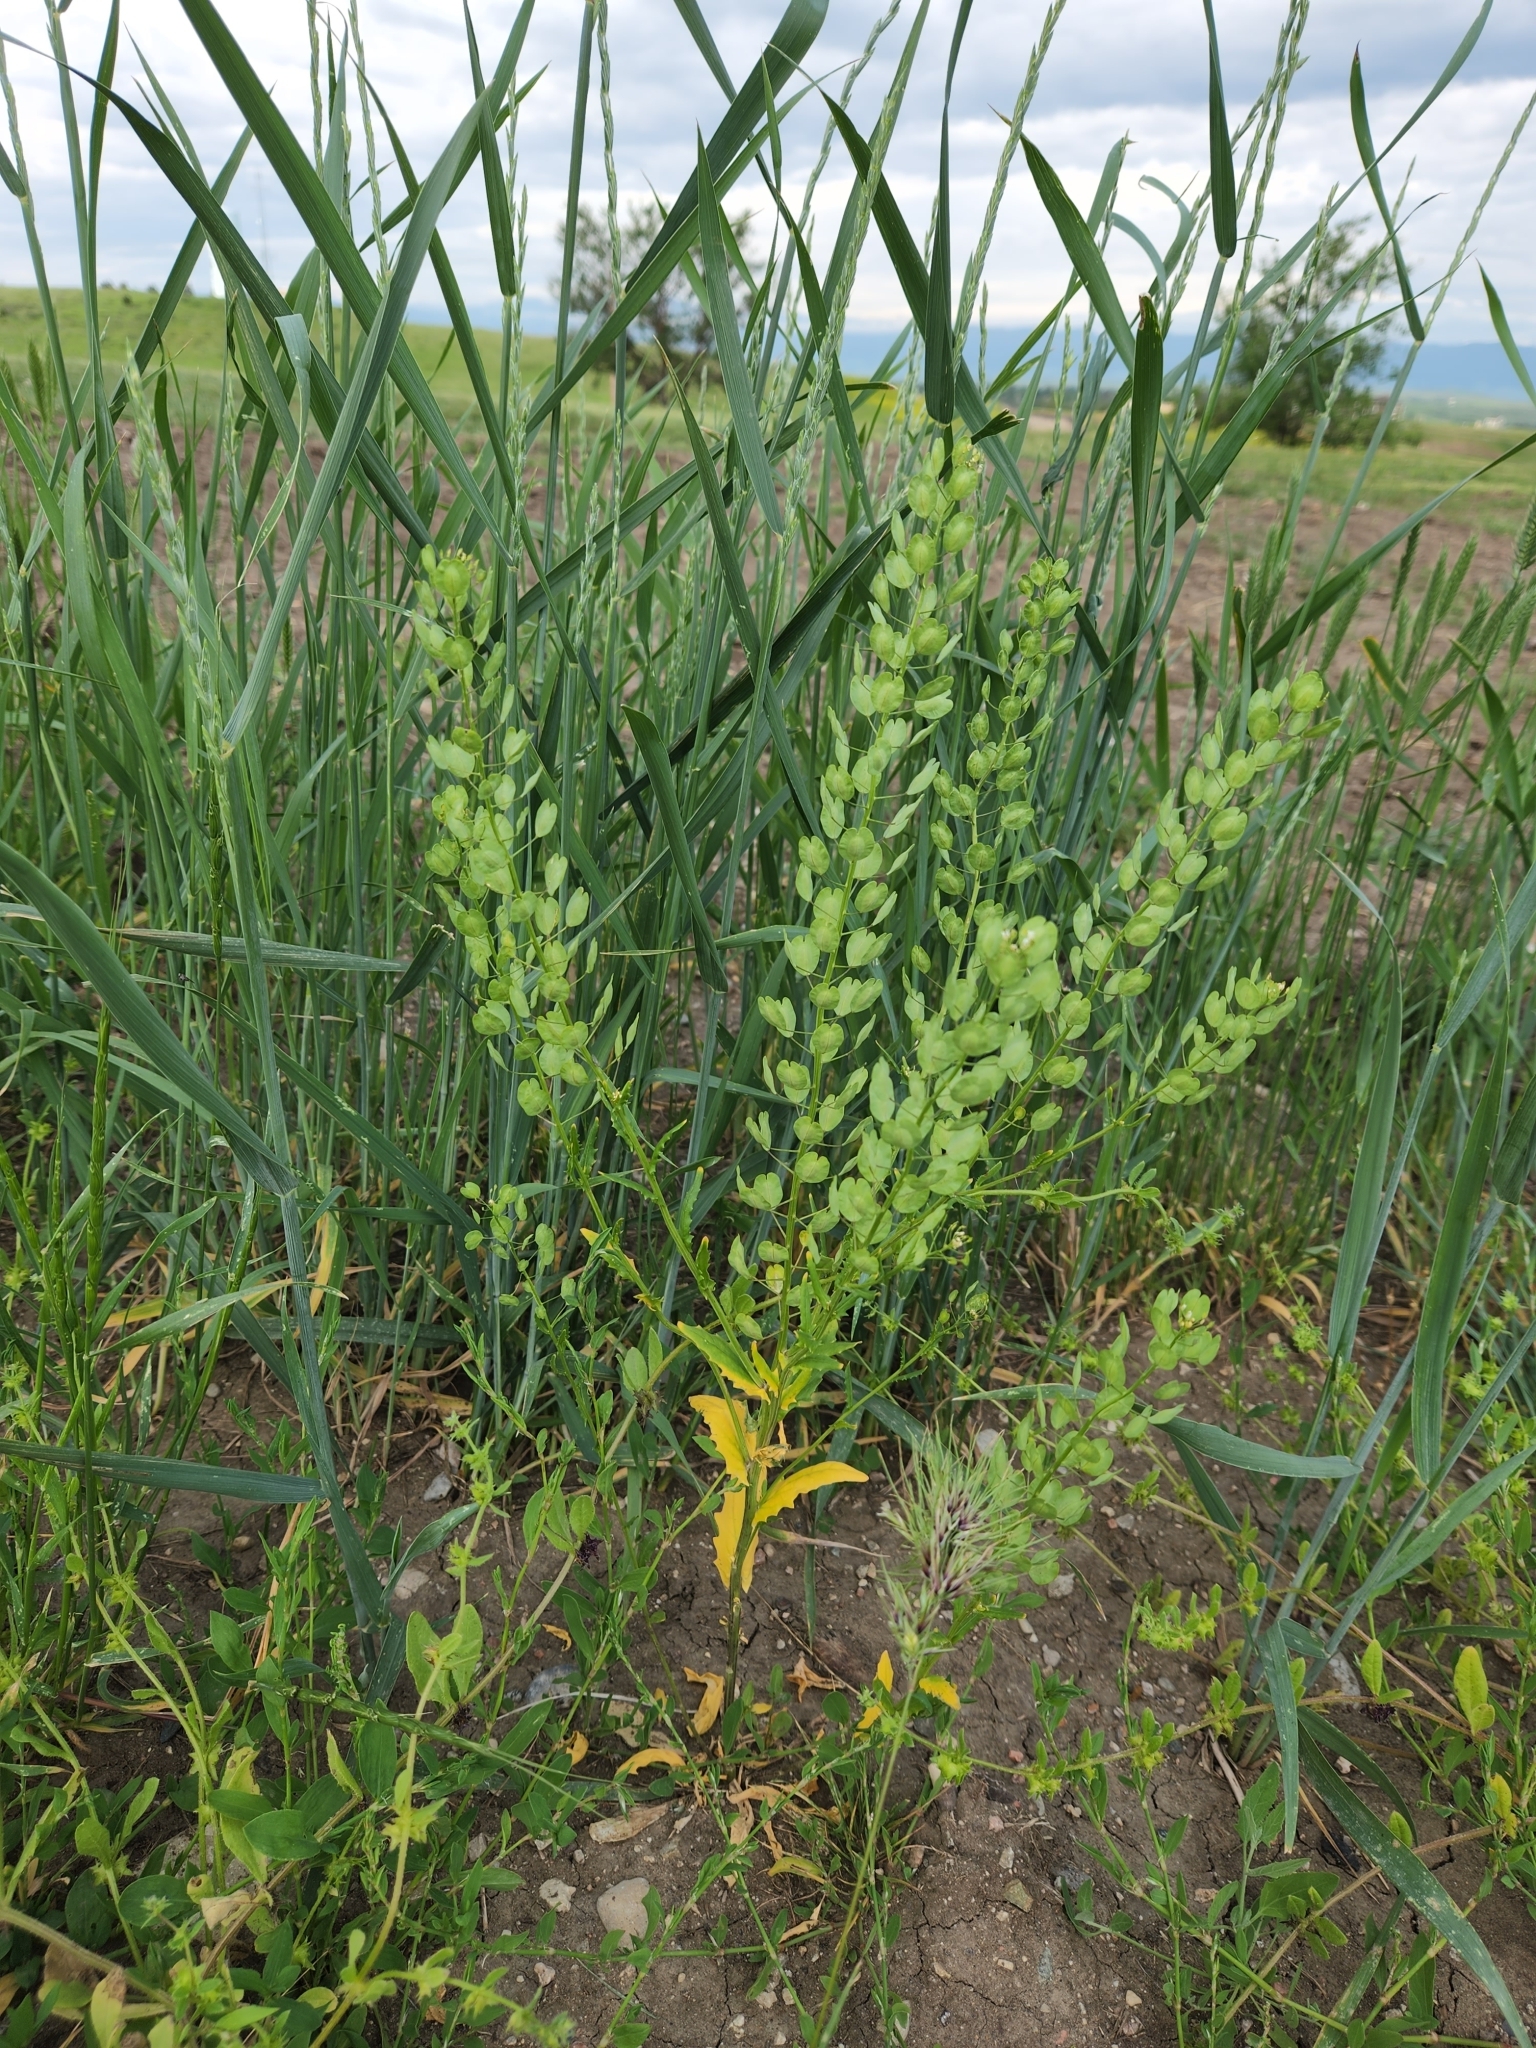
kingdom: Plantae
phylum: Tracheophyta
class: Magnoliopsida
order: Brassicales
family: Brassicaceae
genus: Thlaspi
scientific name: Thlaspi arvense
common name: Field pennycress
